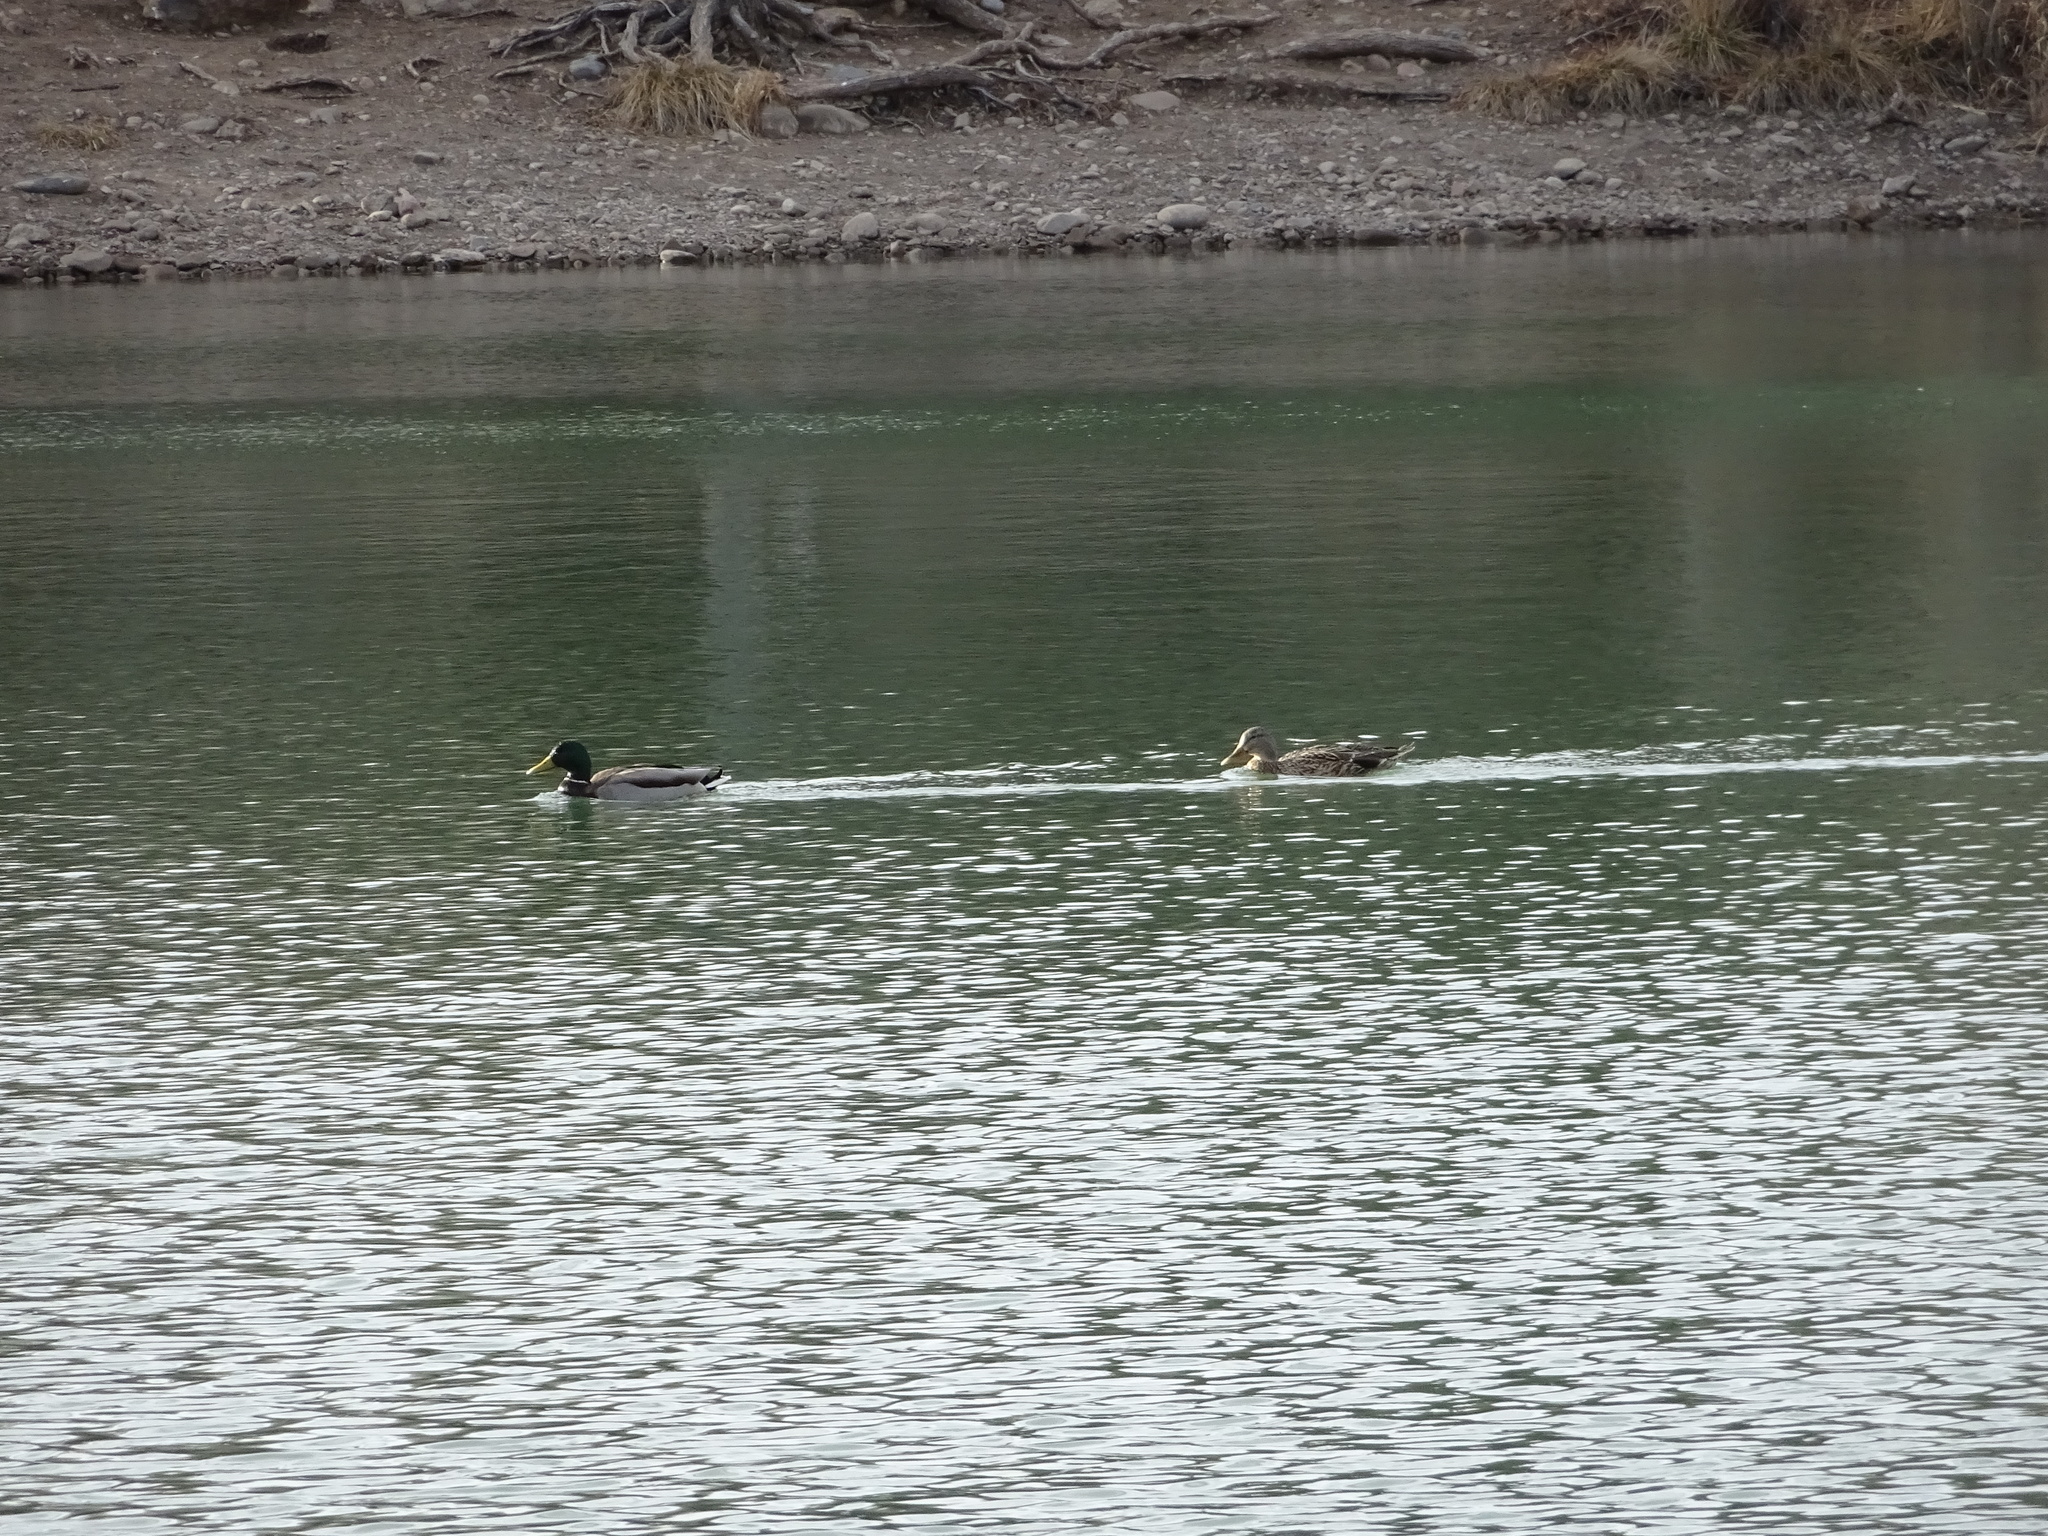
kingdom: Animalia
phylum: Chordata
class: Aves
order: Anseriformes
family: Anatidae
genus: Anas
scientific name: Anas platyrhynchos
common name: Mallard
